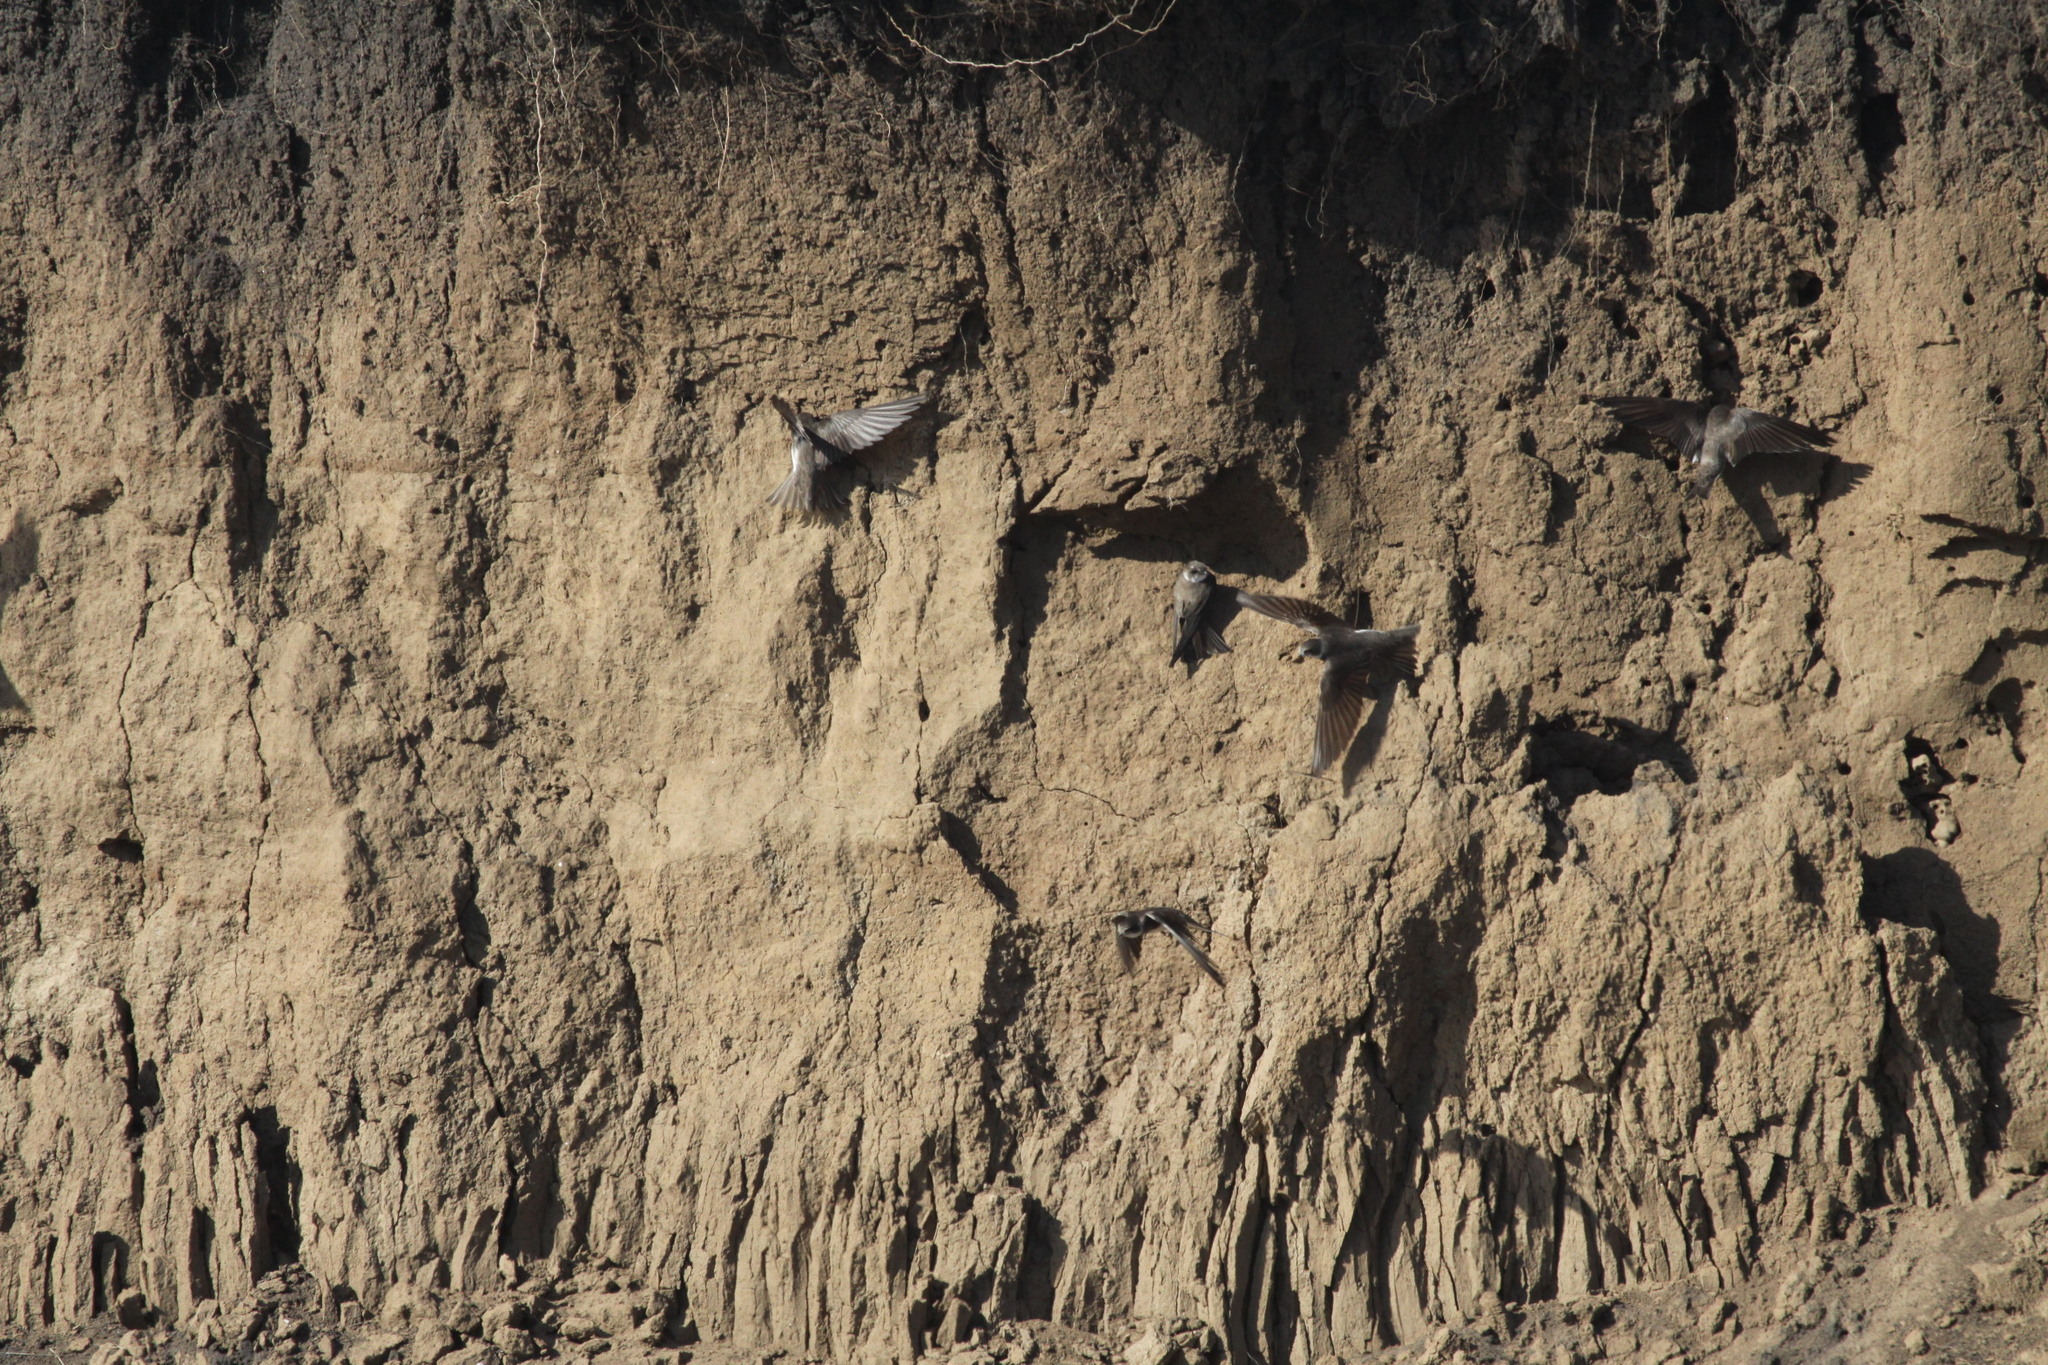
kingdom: Animalia
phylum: Chordata
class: Aves
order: Passeriformes
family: Hirundinidae
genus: Riparia
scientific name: Riparia riparia
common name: Sand martin
